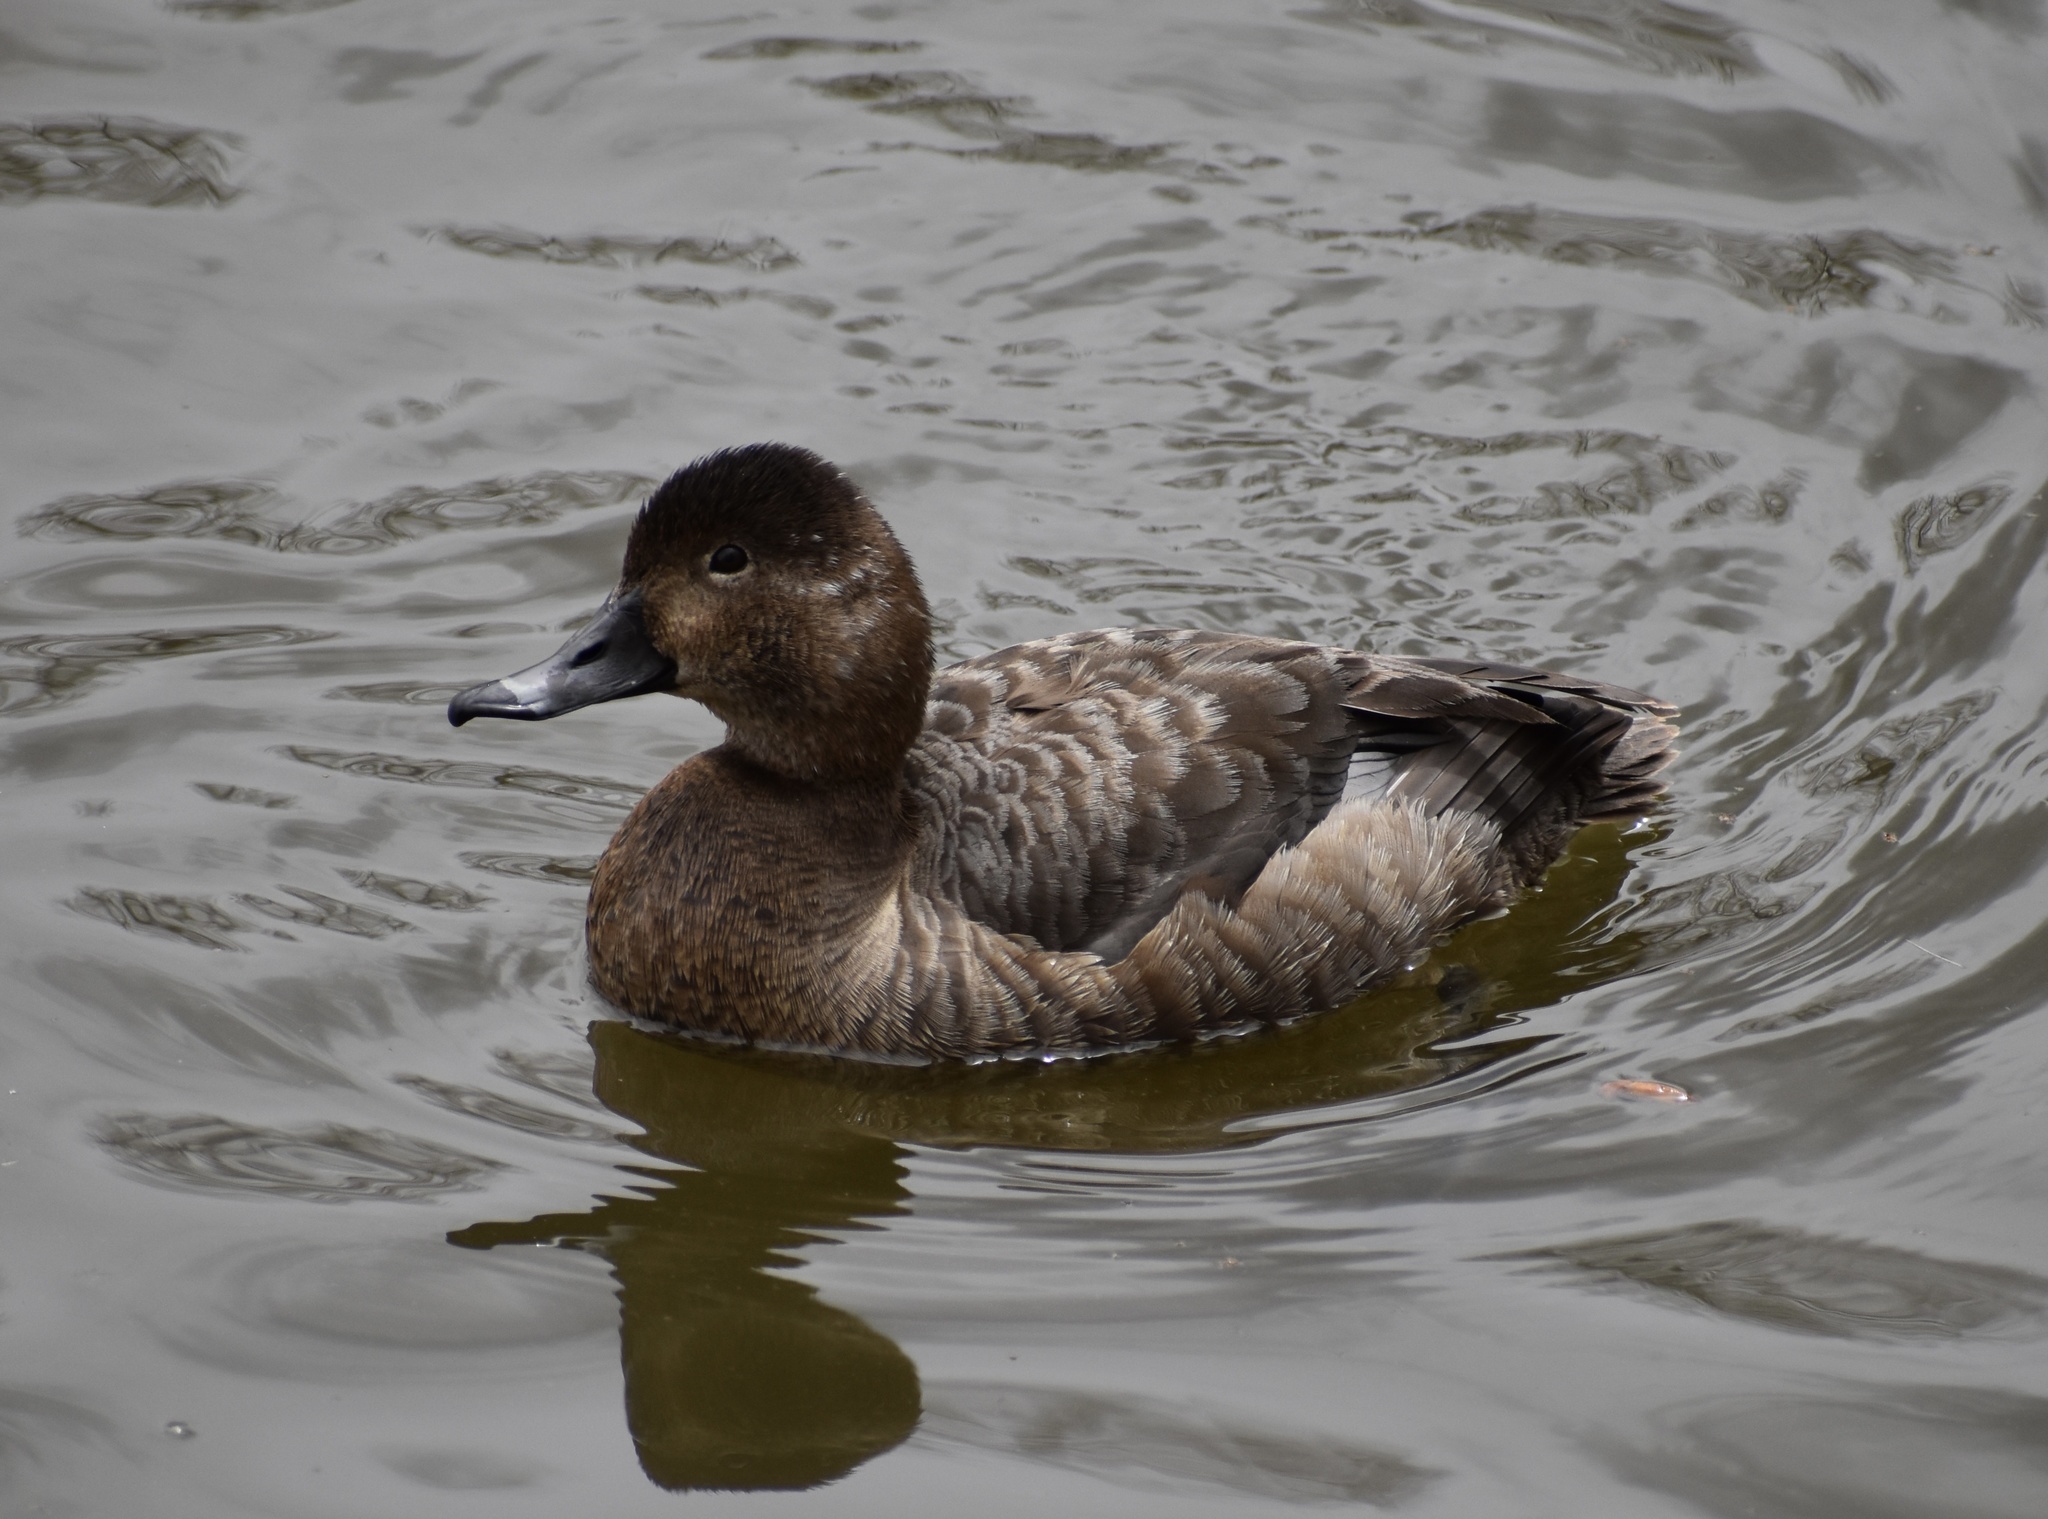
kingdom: Animalia
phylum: Chordata
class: Aves
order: Anseriformes
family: Anatidae
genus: Aythya
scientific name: Aythya americana
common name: Redhead
